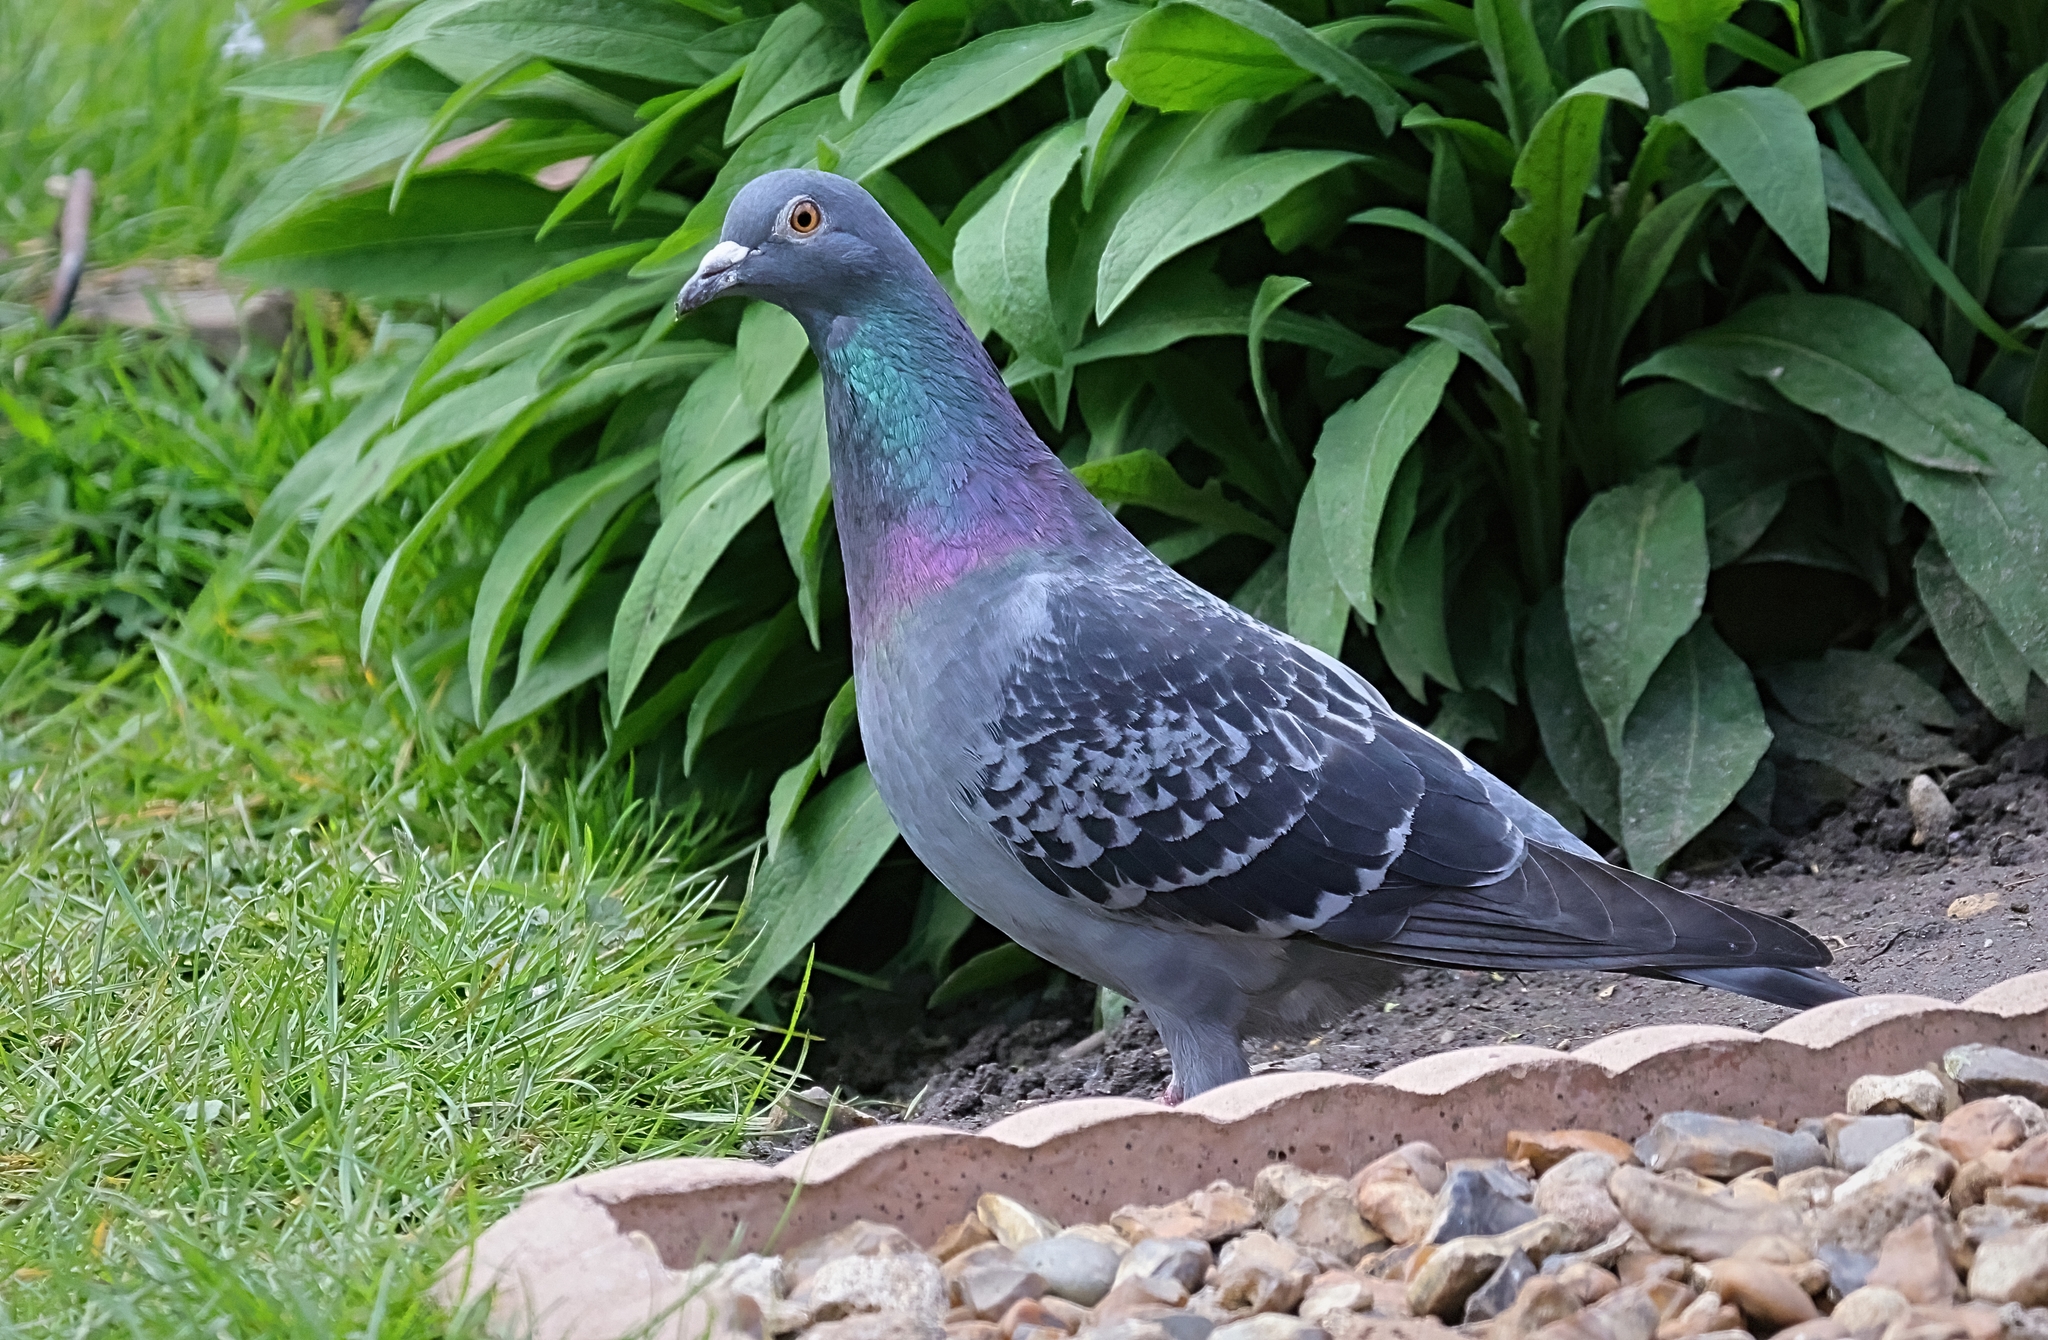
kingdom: Animalia
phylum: Chordata
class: Aves
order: Columbiformes
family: Columbidae
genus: Columba
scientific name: Columba livia
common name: Rock pigeon
